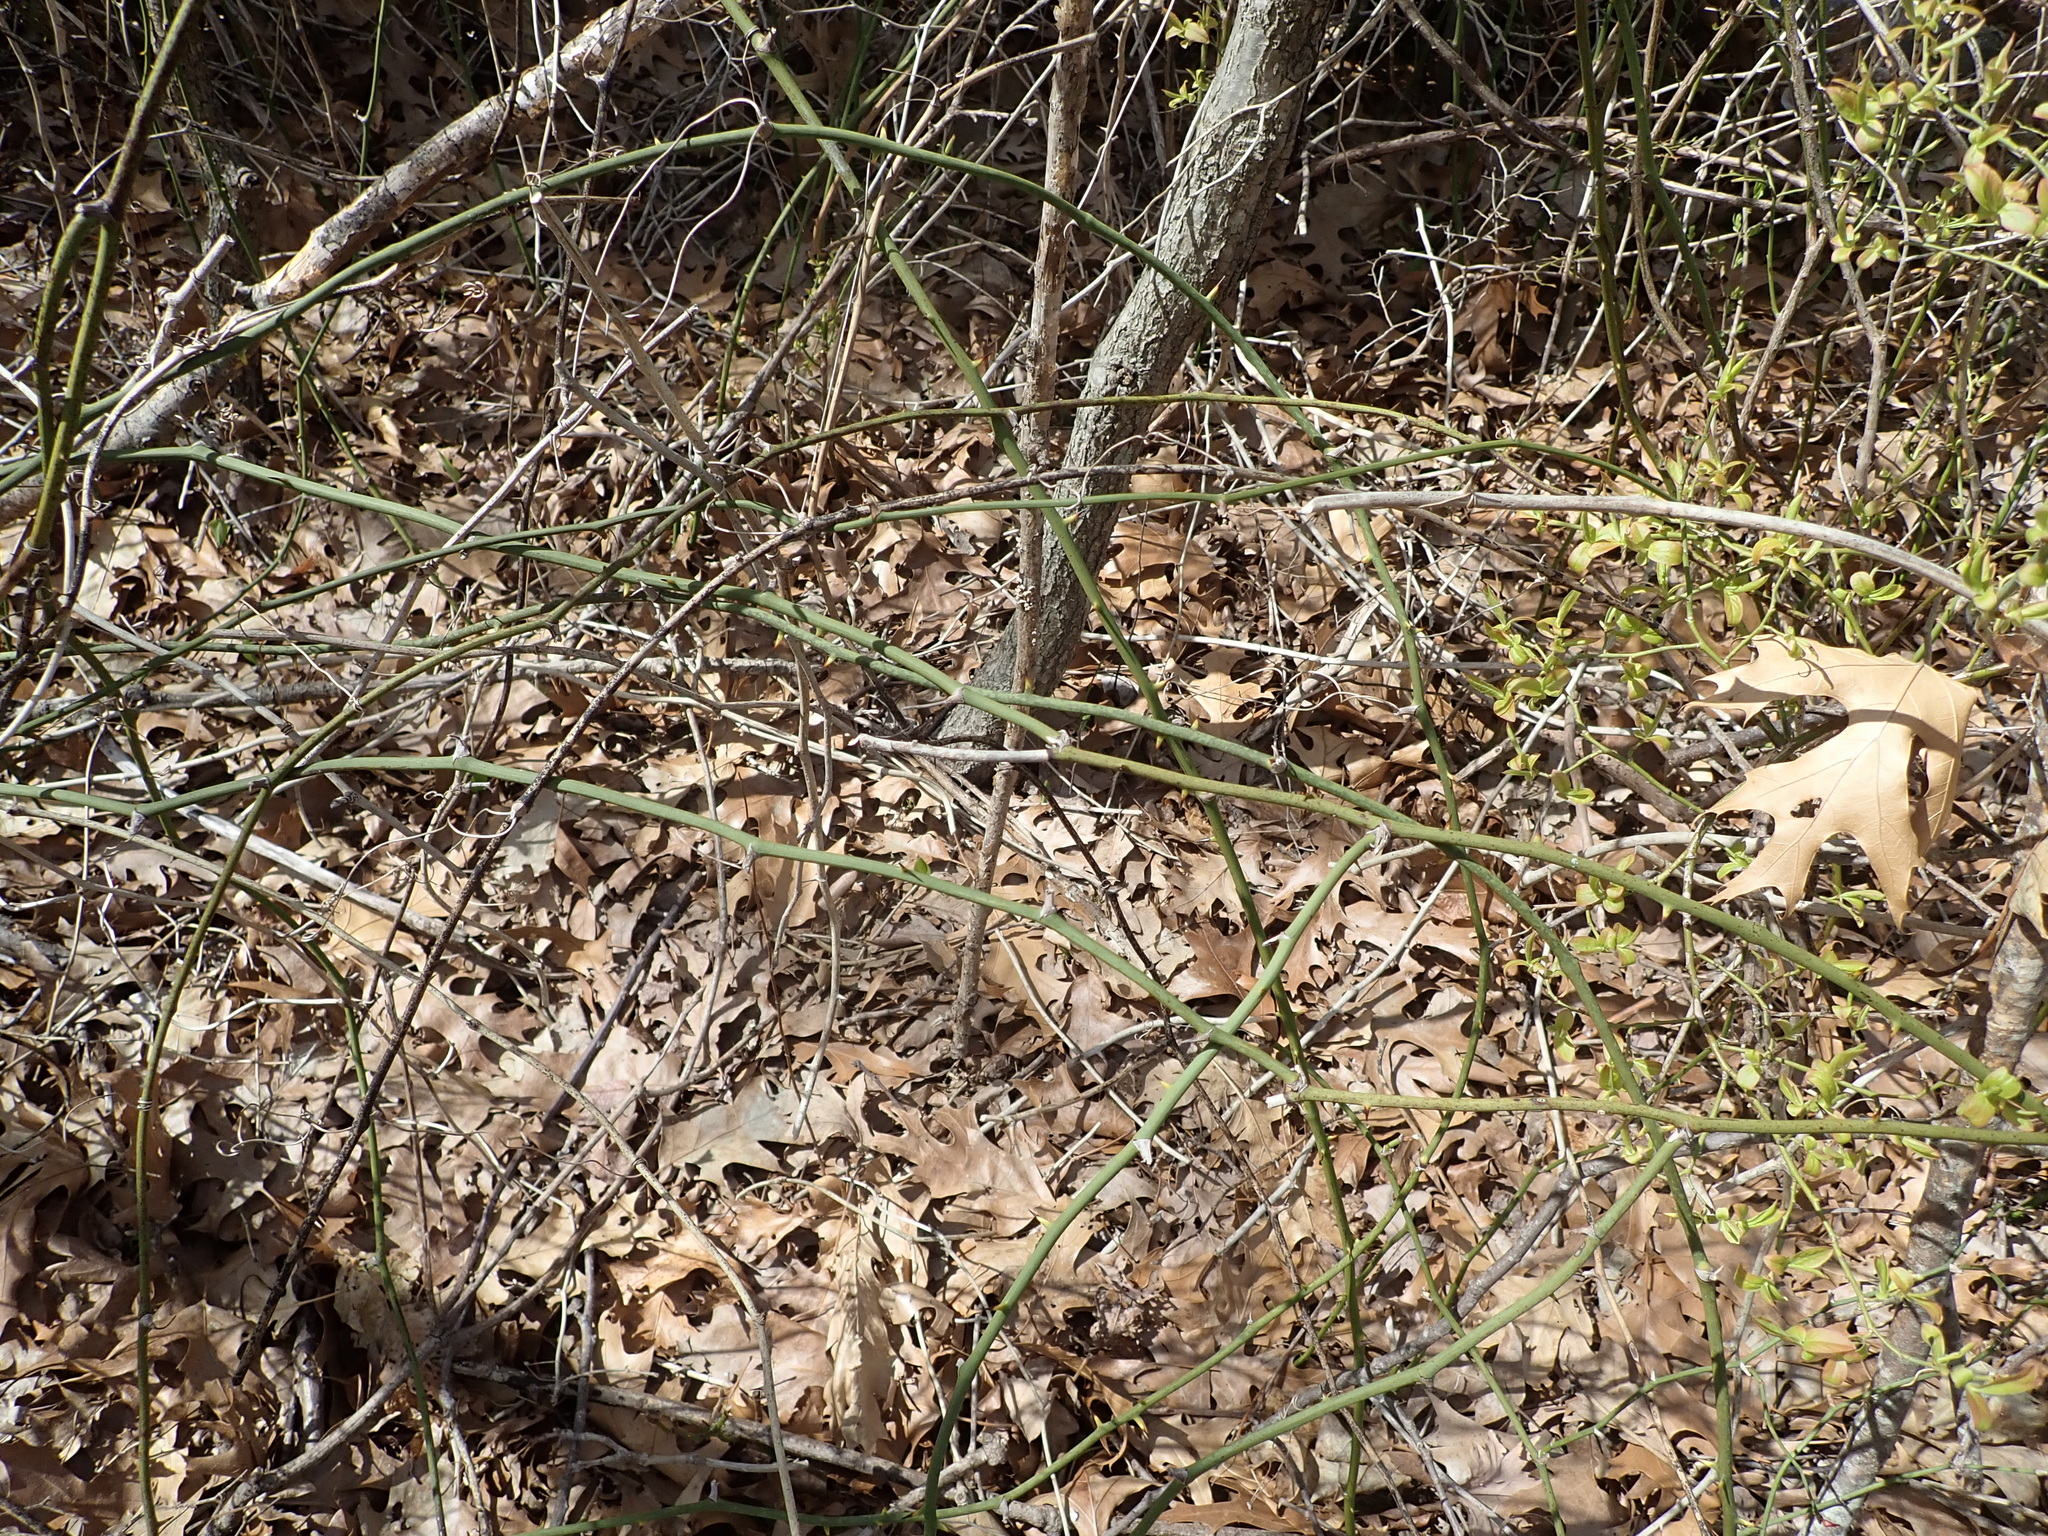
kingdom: Plantae
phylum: Tracheophyta
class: Liliopsida
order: Liliales
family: Smilacaceae
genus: Smilax
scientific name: Smilax rotundifolia
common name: Bullbriar
